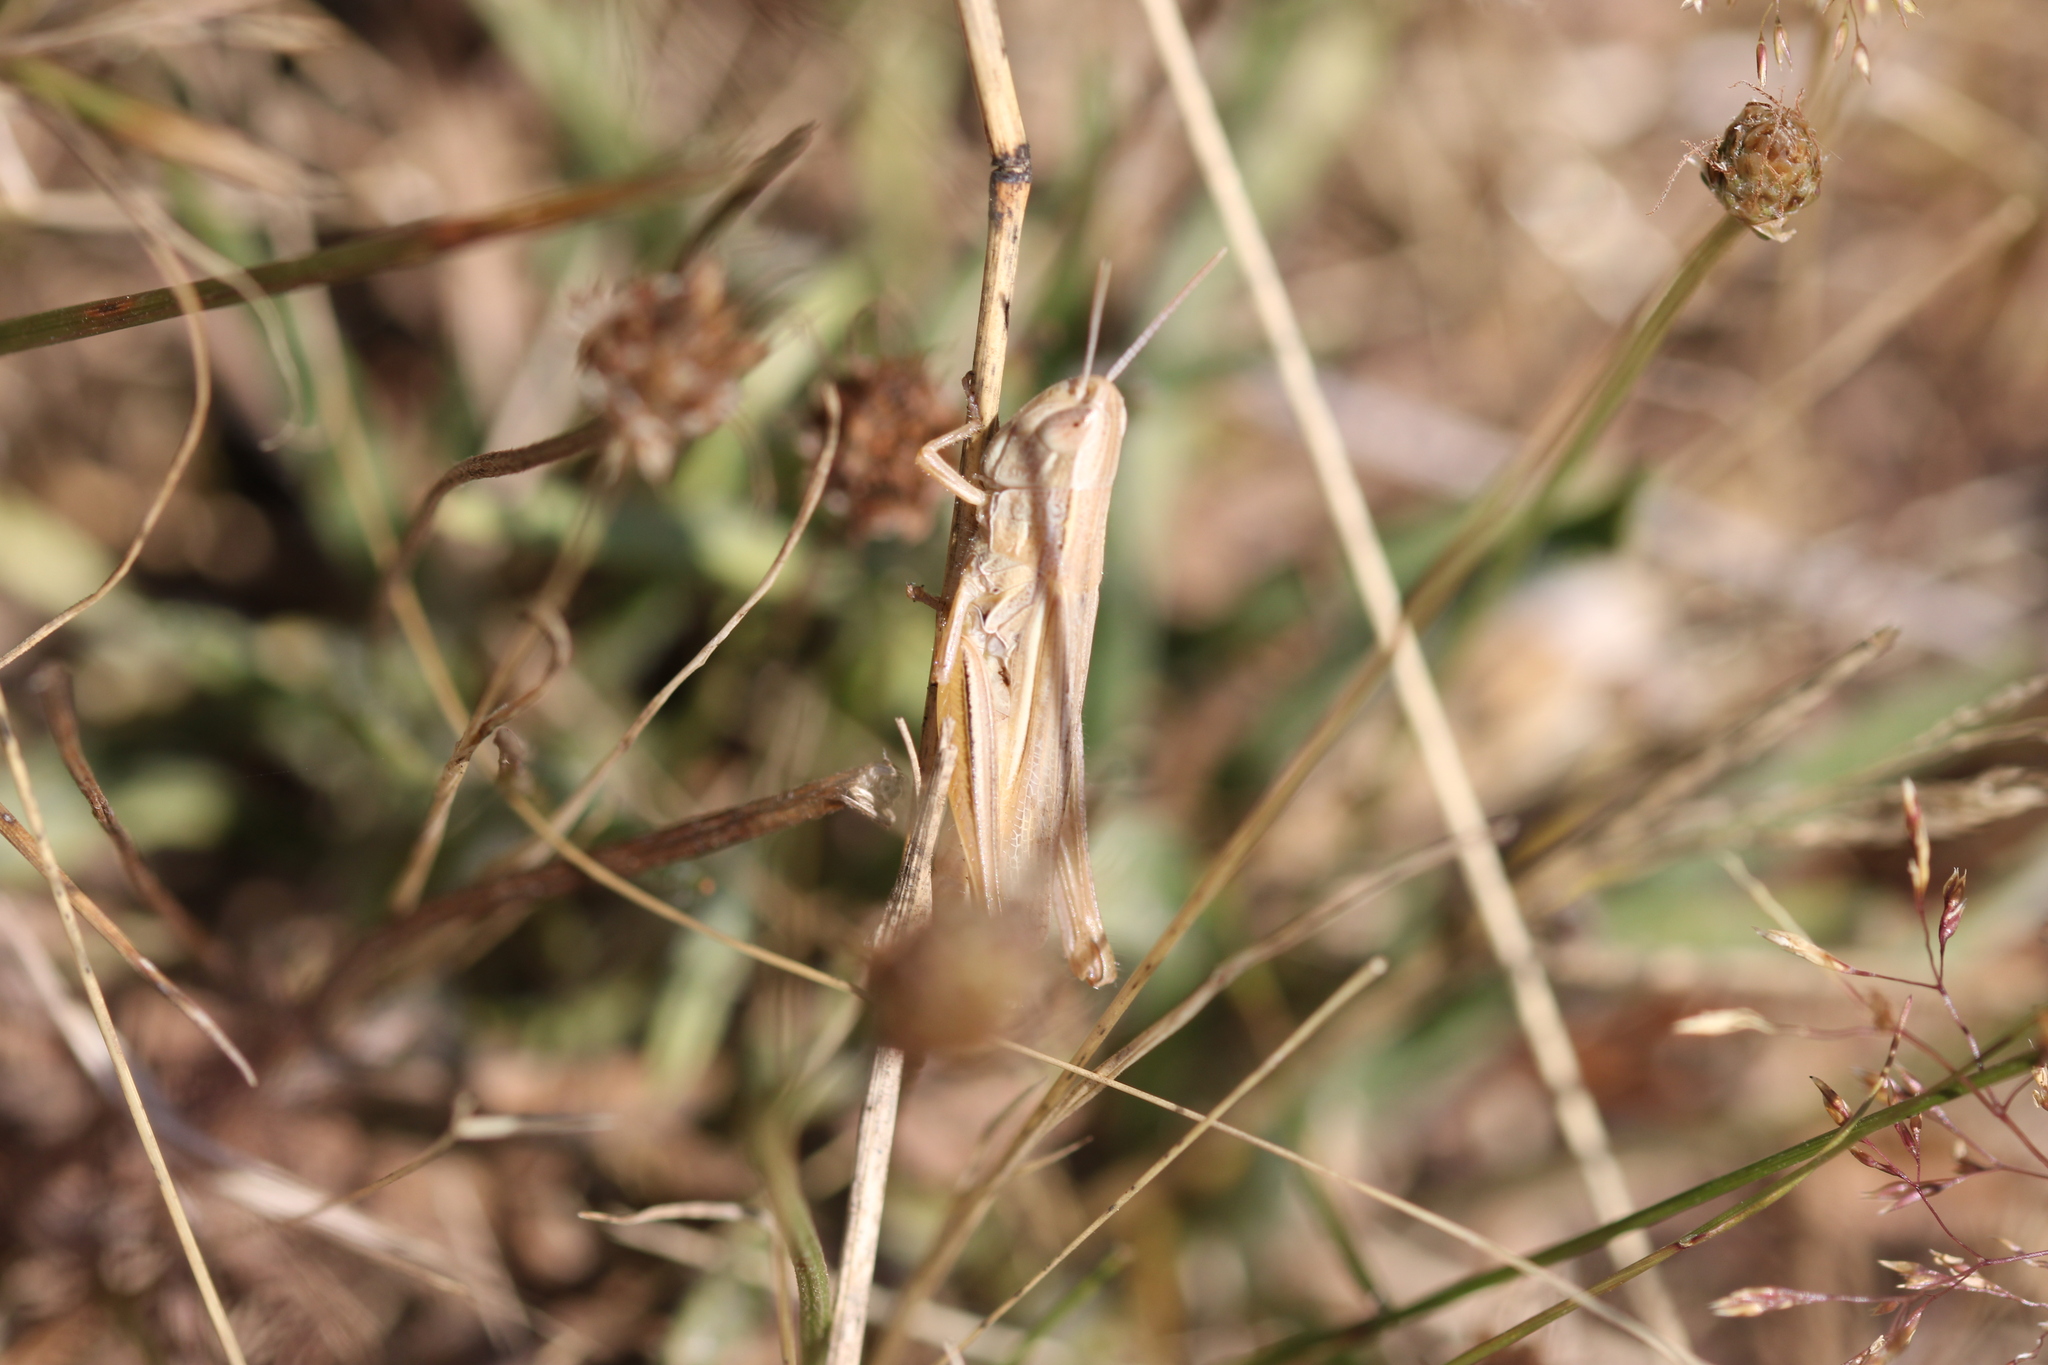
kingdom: Animalia
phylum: Arthropoda
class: Insecta
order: Orthoptera
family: Acrididae
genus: Euchorthippus
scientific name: Euchorthippus elegantulus
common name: Elegant straw grasshopper
